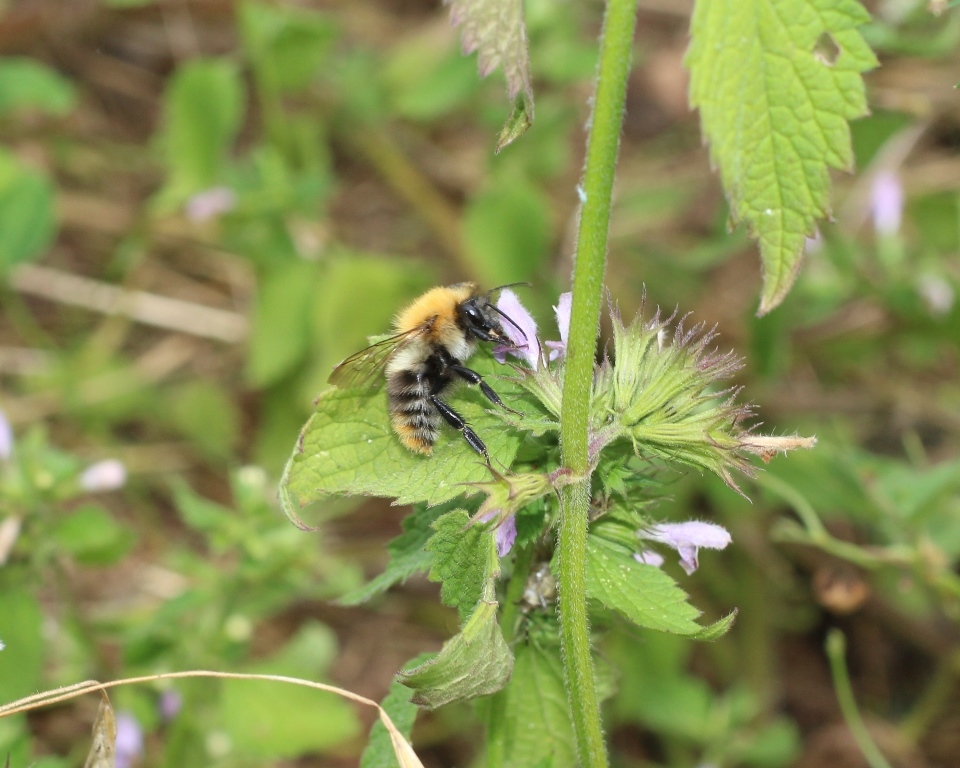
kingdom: Animalia
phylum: Arthropoda
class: Insecta
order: Hymenoptera
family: Apidae
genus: Bombus
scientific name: Bombus pascuorum
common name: Common carder bee
